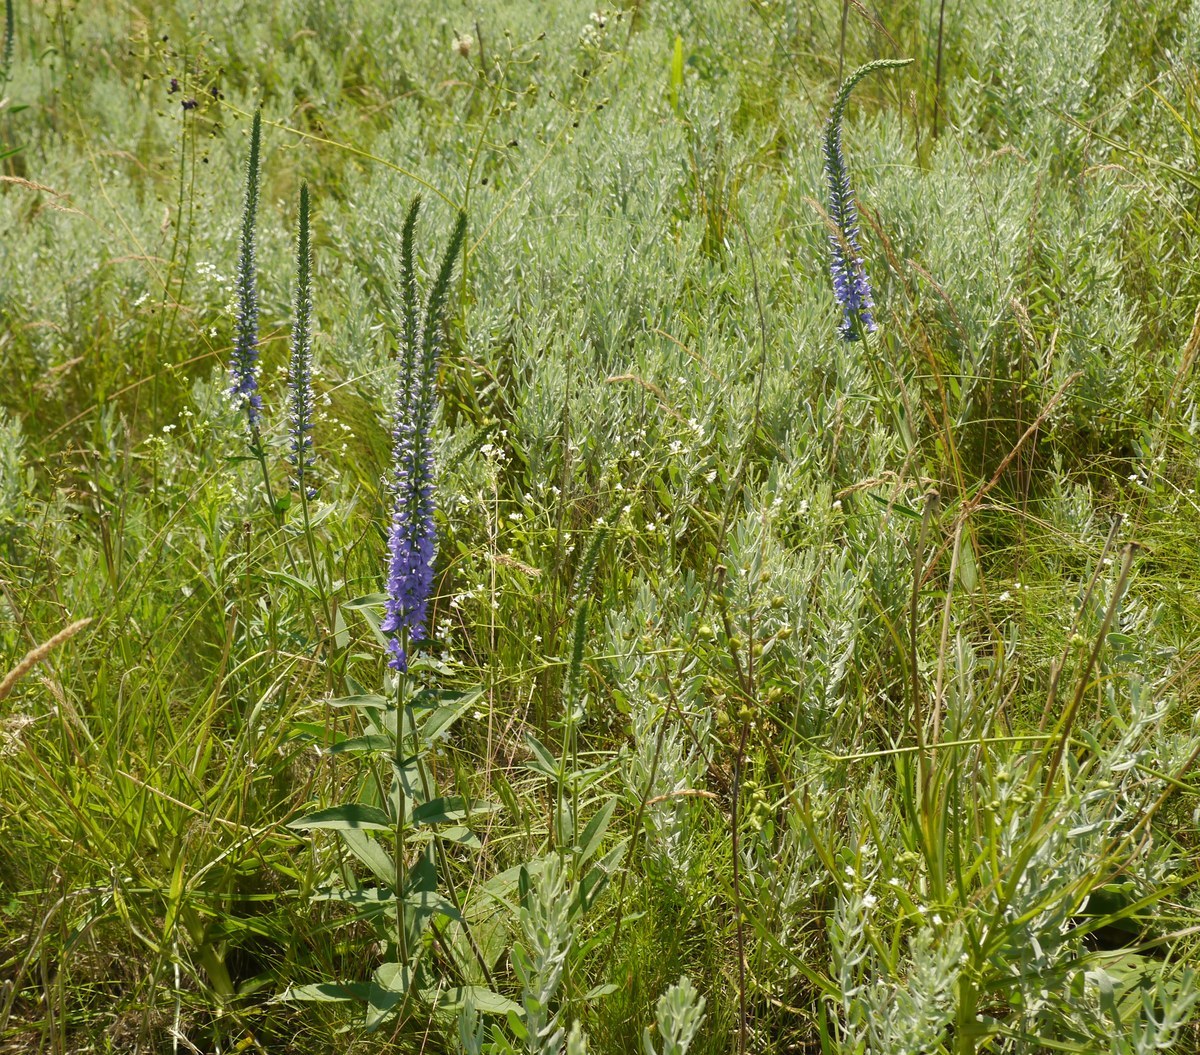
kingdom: Plantae
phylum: Tracheophyta
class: Magnoliopsida
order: Lamiales
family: Plantaginaceae
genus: Veronica
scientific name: Veronica barrelieri
